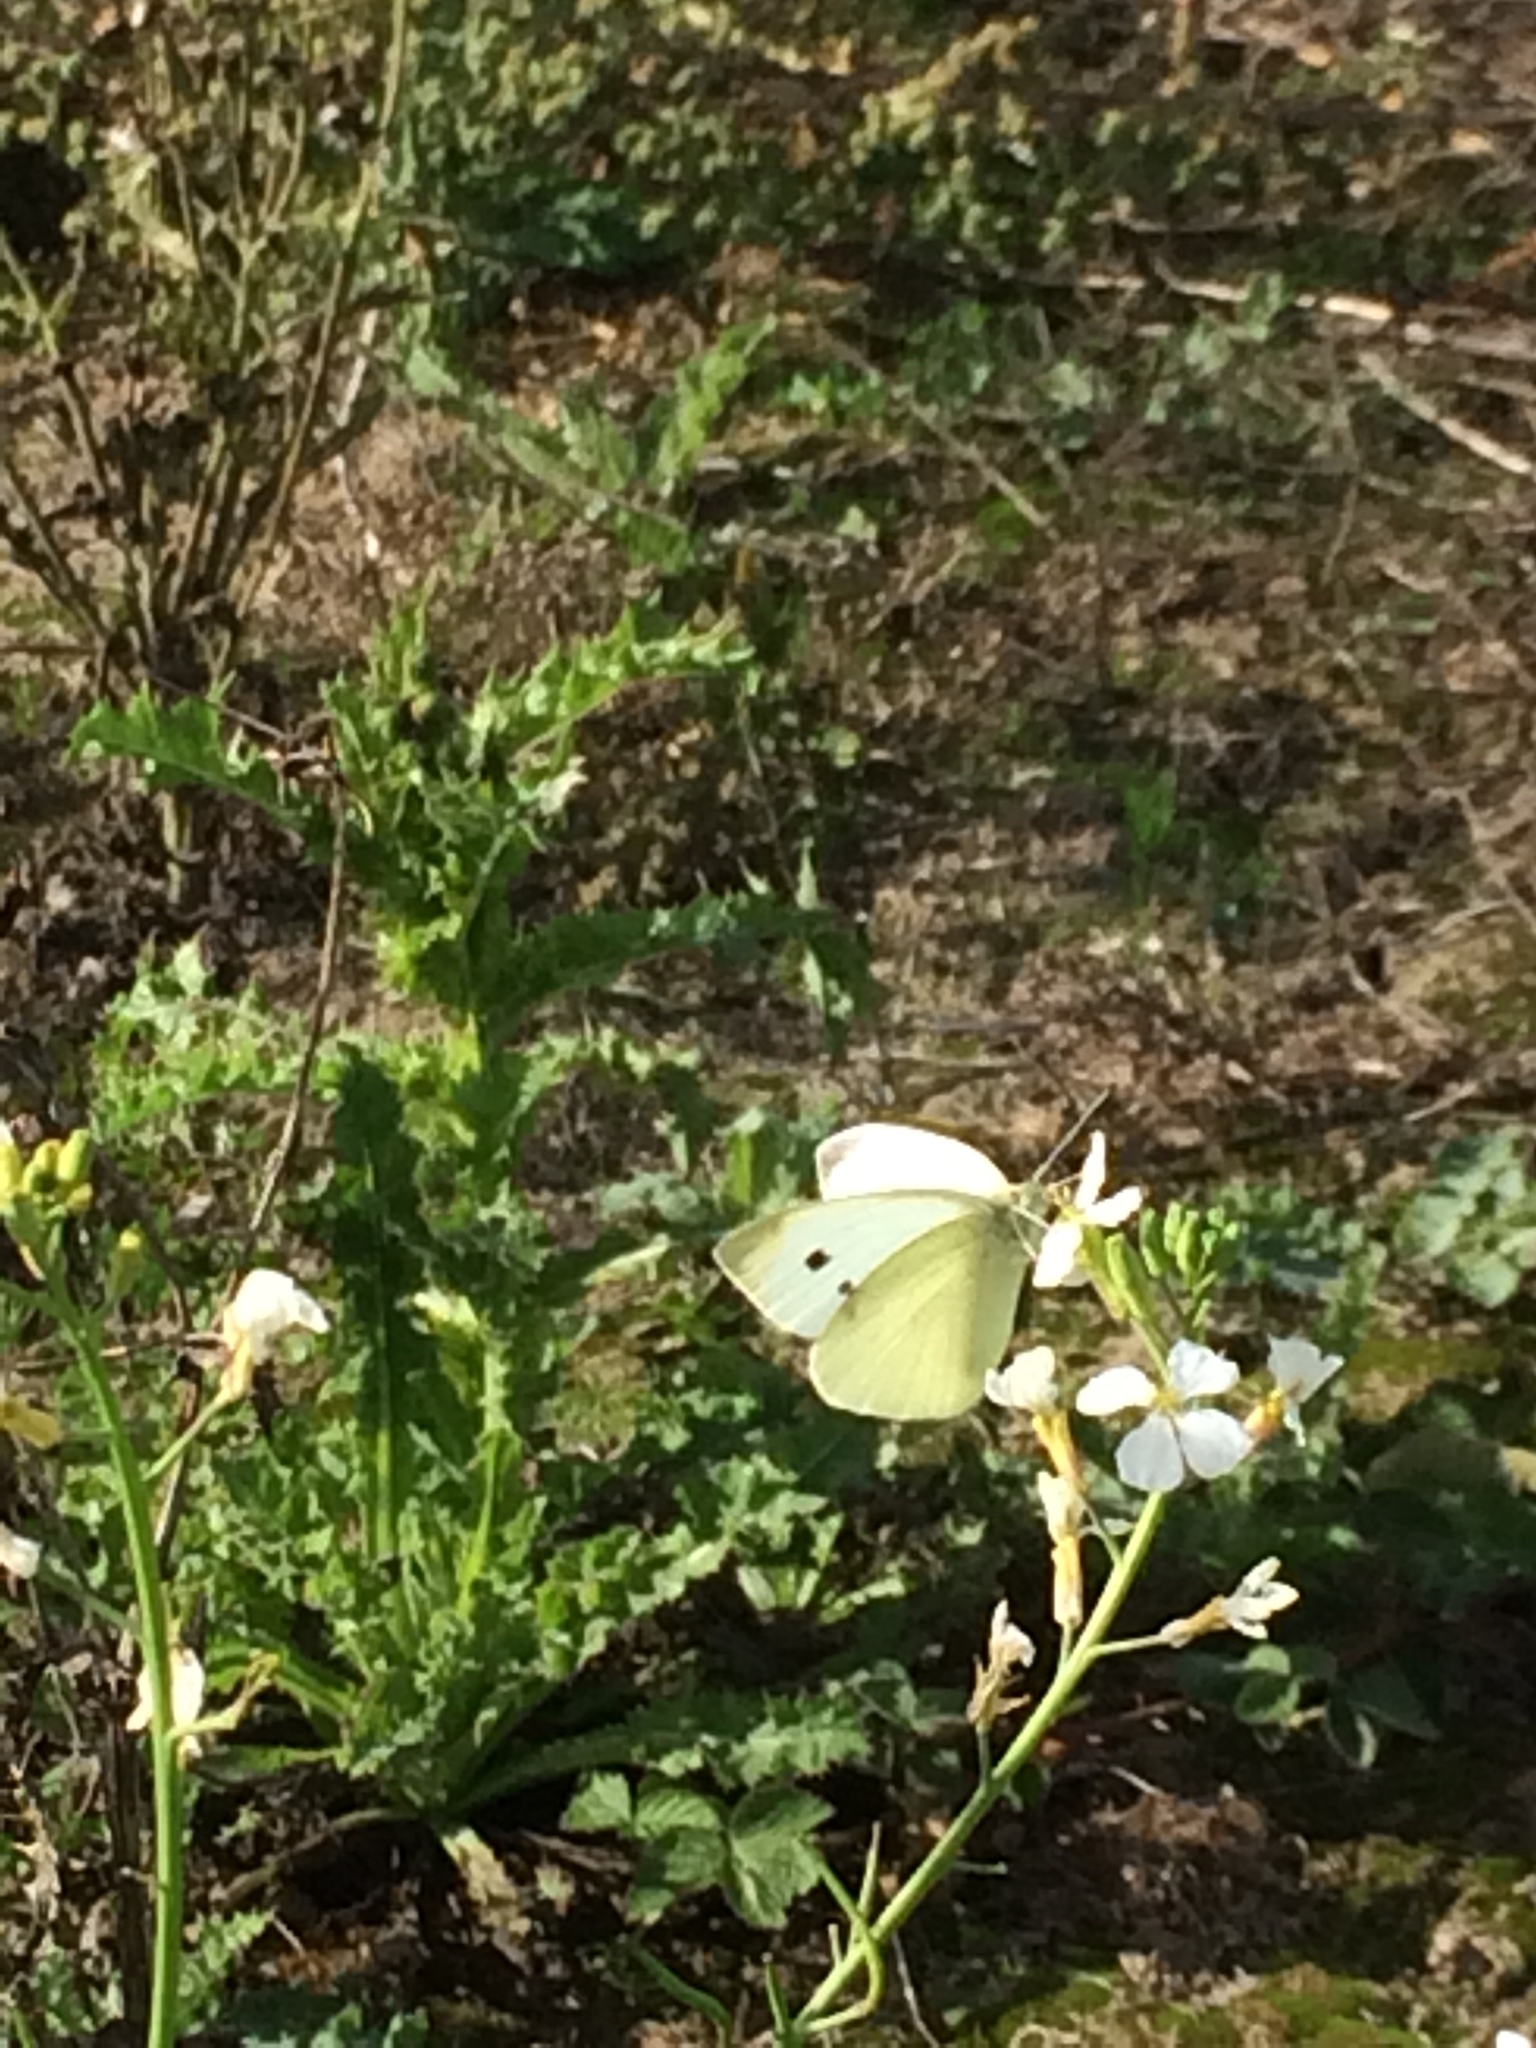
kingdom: Animalia
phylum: Arthropoda
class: Insecta
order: Lepidoptera
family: Pieridae
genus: Pieris
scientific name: Pieris rapae
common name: Small white
